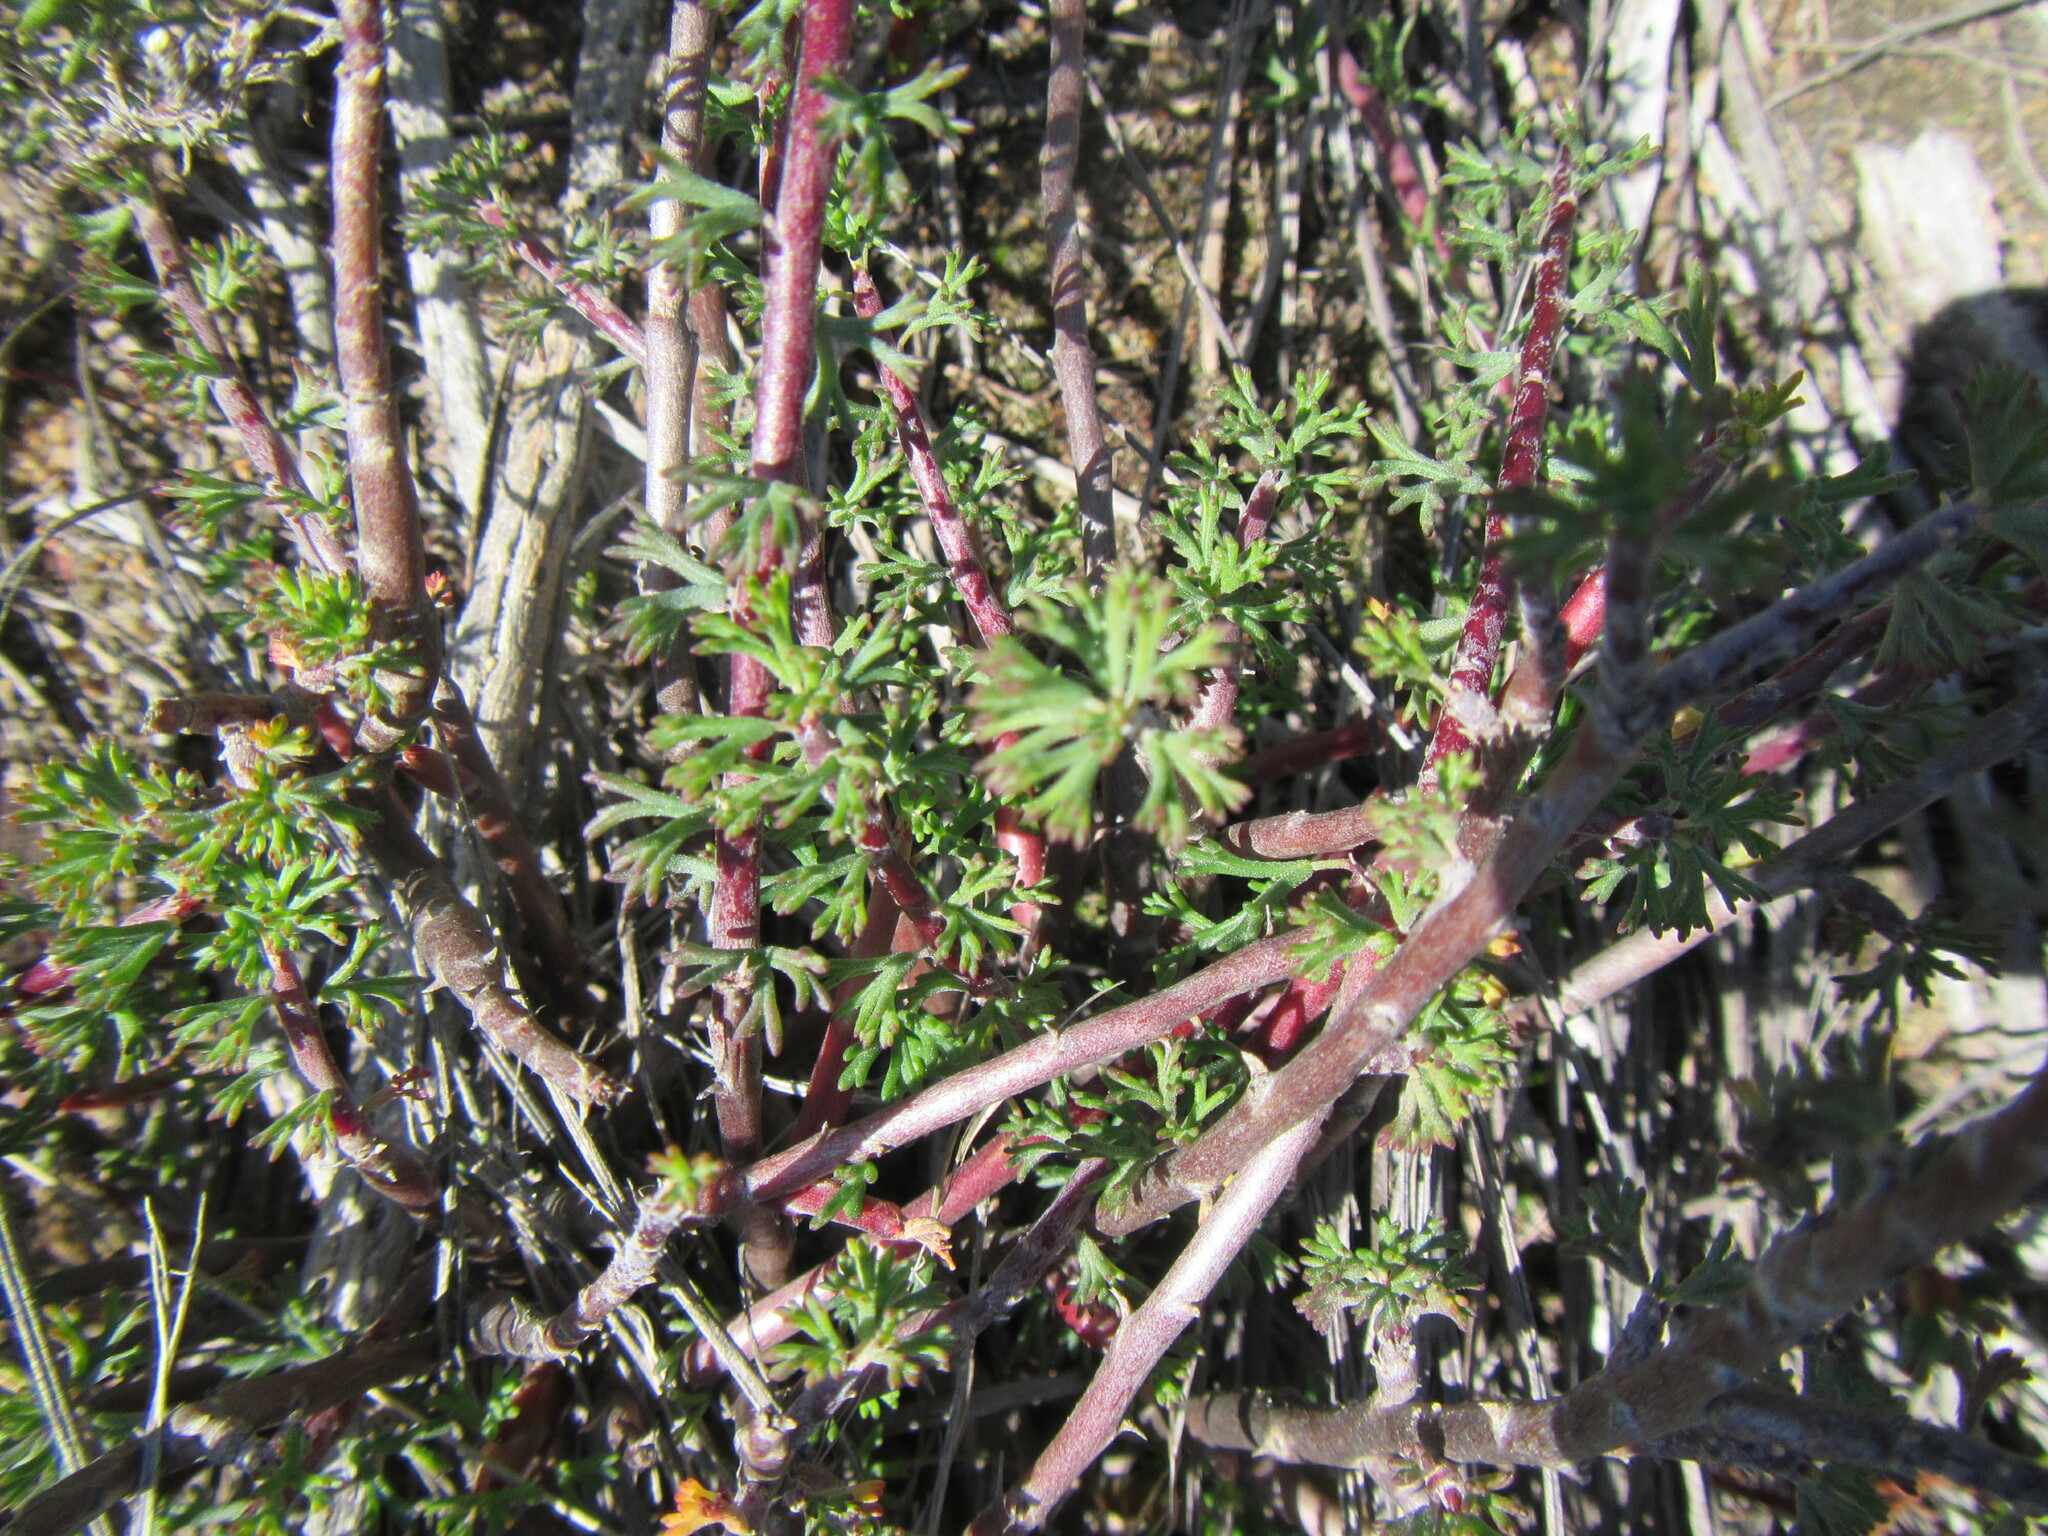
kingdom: Plantae
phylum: Tracheophyta
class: Magnoliopsida
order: Geraniales
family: Geraniaceae
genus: Pelargonium
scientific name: Pelargonium karooicum
